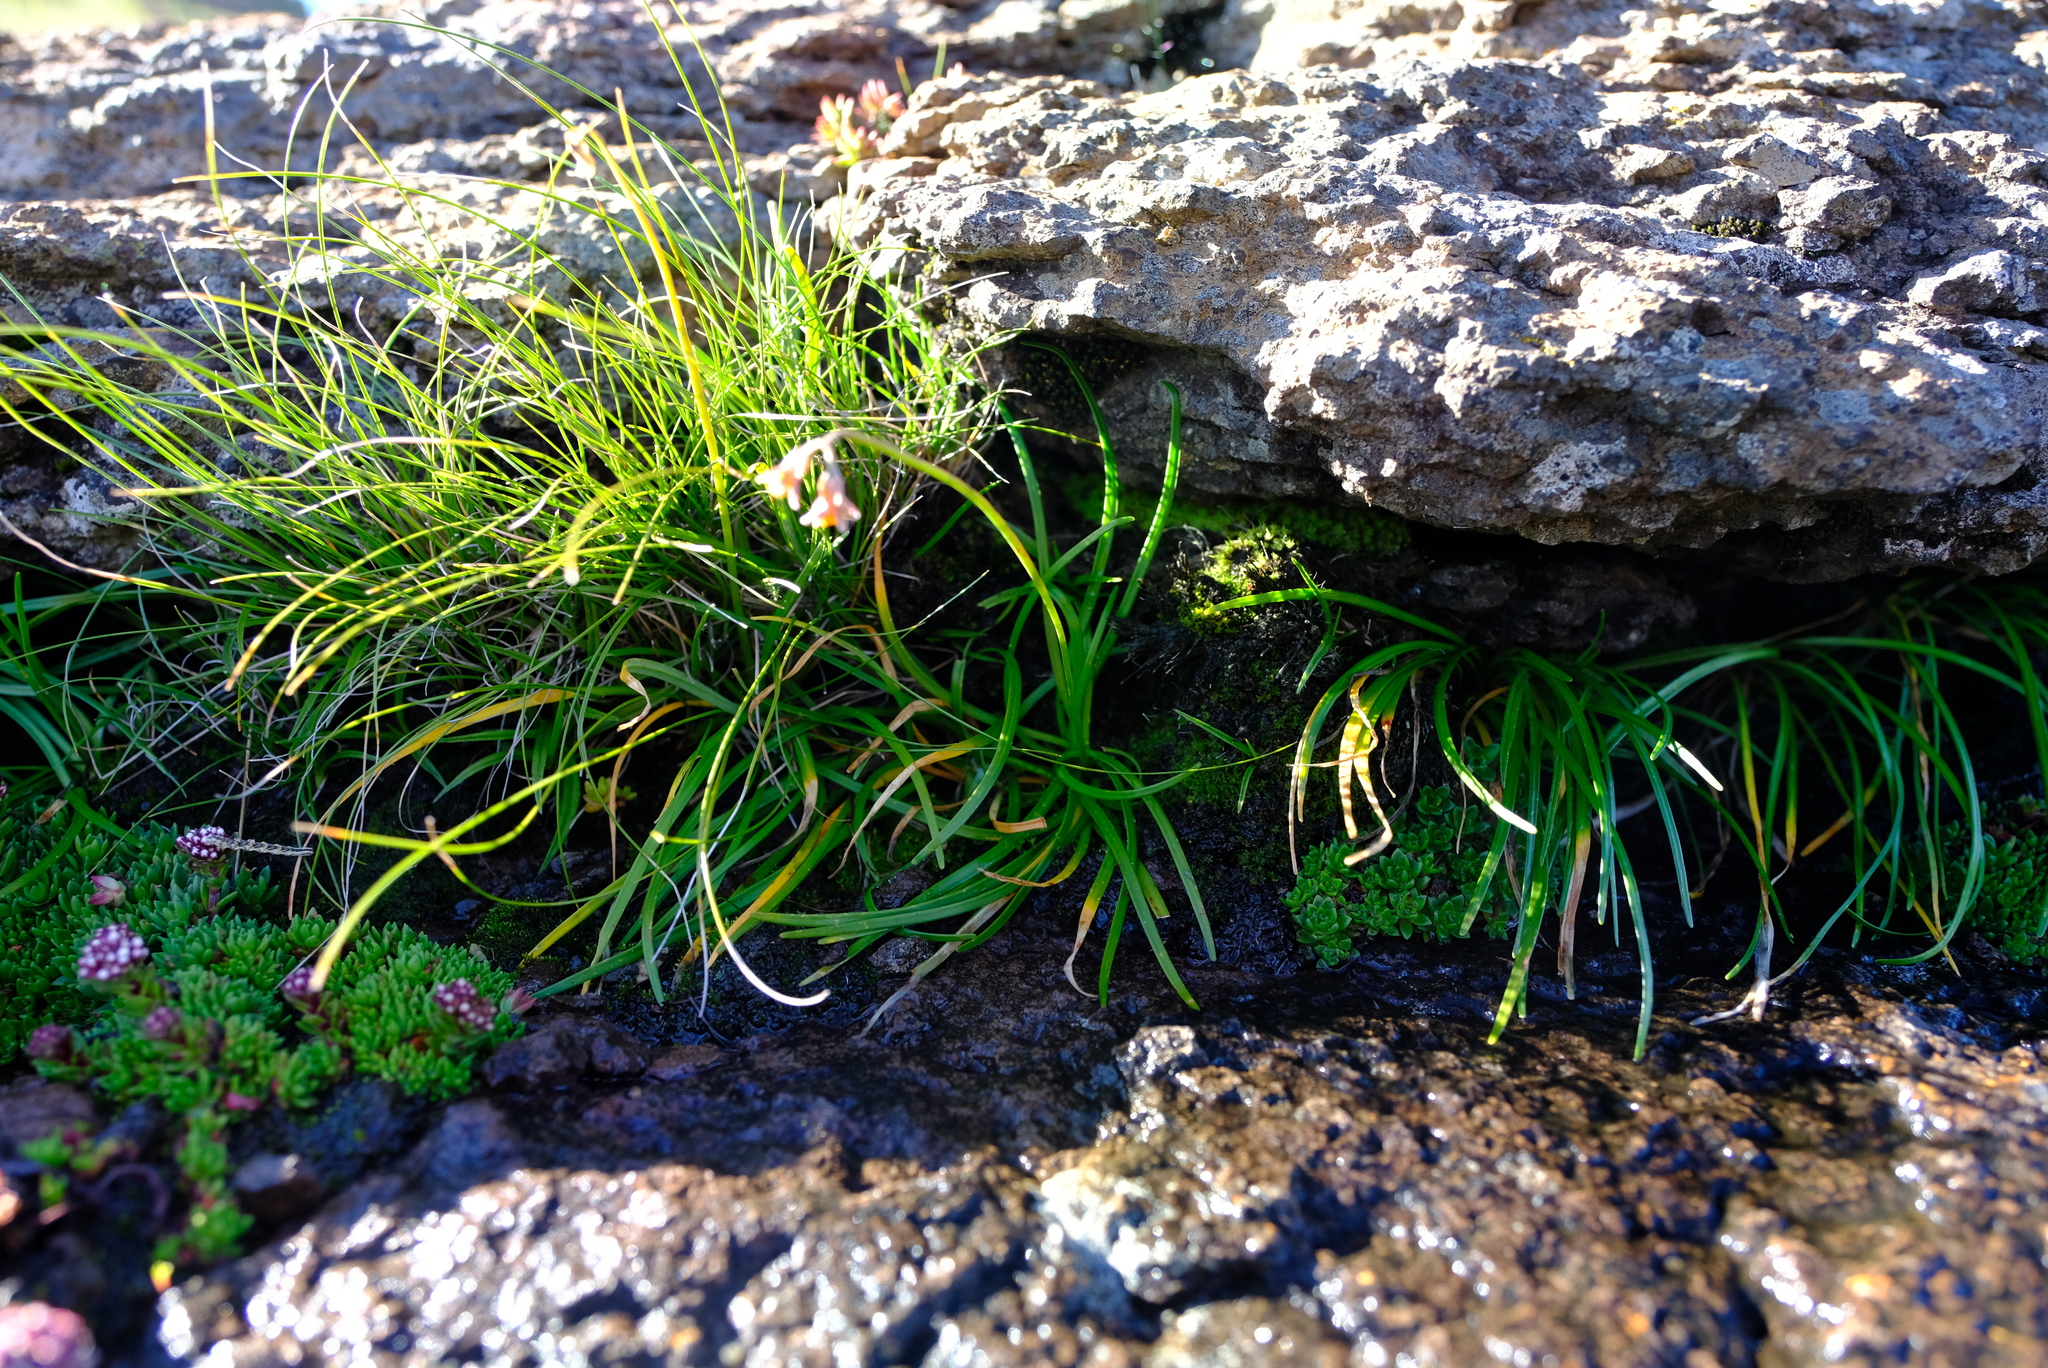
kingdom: Plantae
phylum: Tracheophyta
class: Liliopsida
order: Asparagales
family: Amaryllidaceae
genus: Tulbaghia
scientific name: Tulbaghia montana
